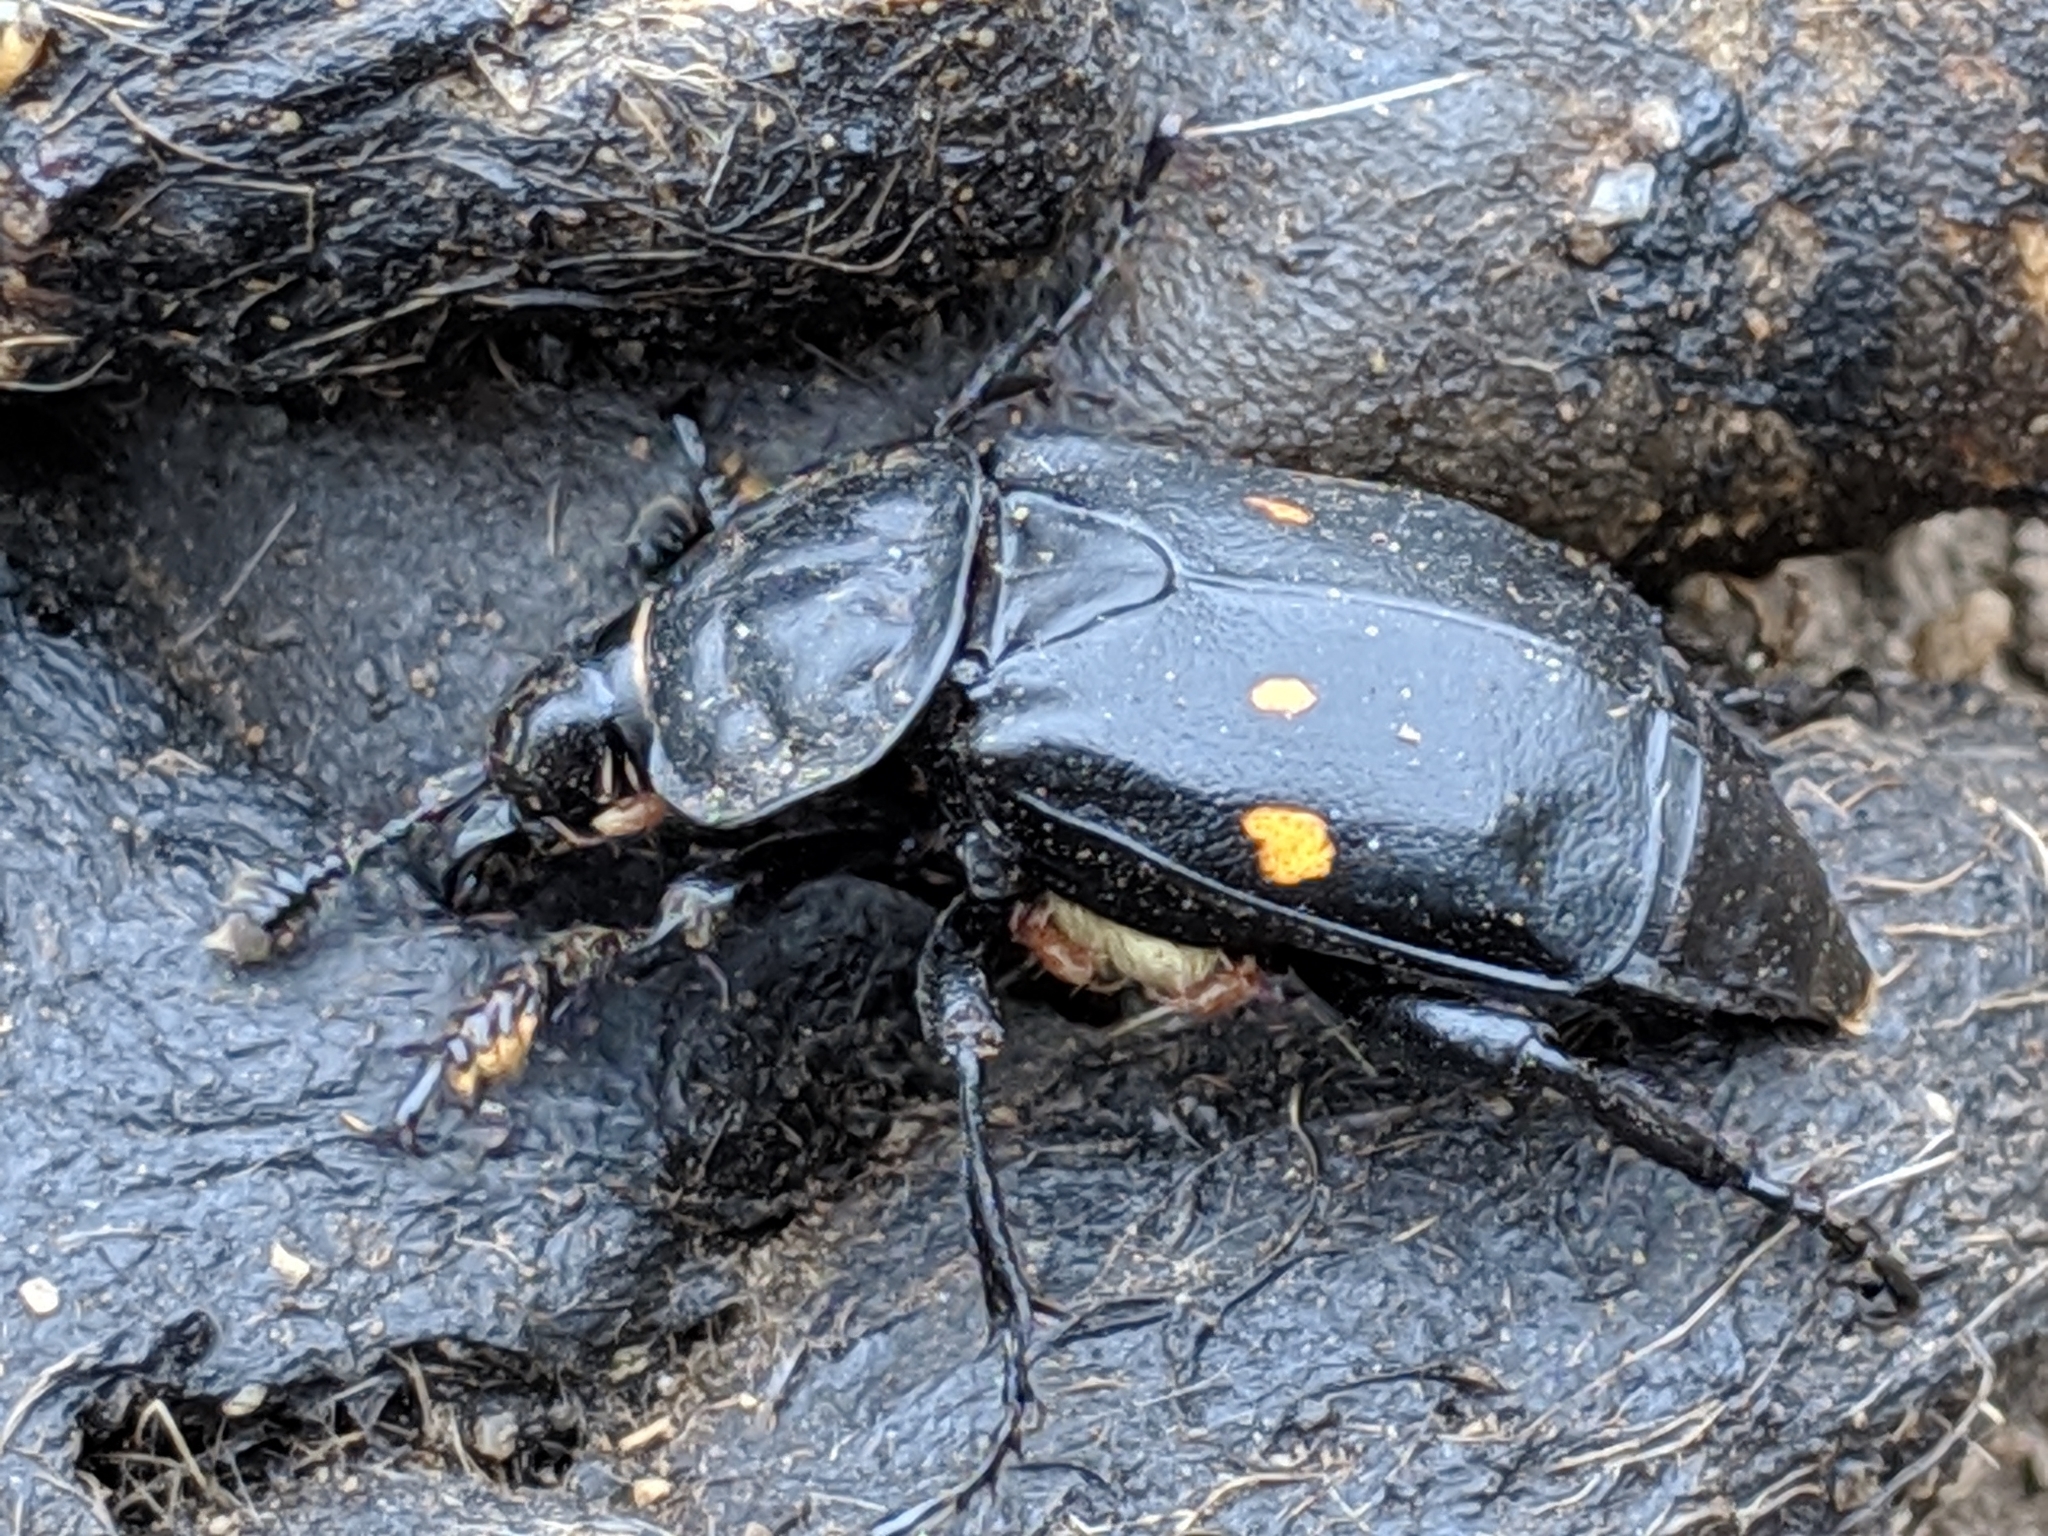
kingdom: Animalia
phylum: Arthropoda
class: Insecta
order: Coleoptera
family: Staphylinidae
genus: Nicrophorus
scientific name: Nicrophorus defodiens
